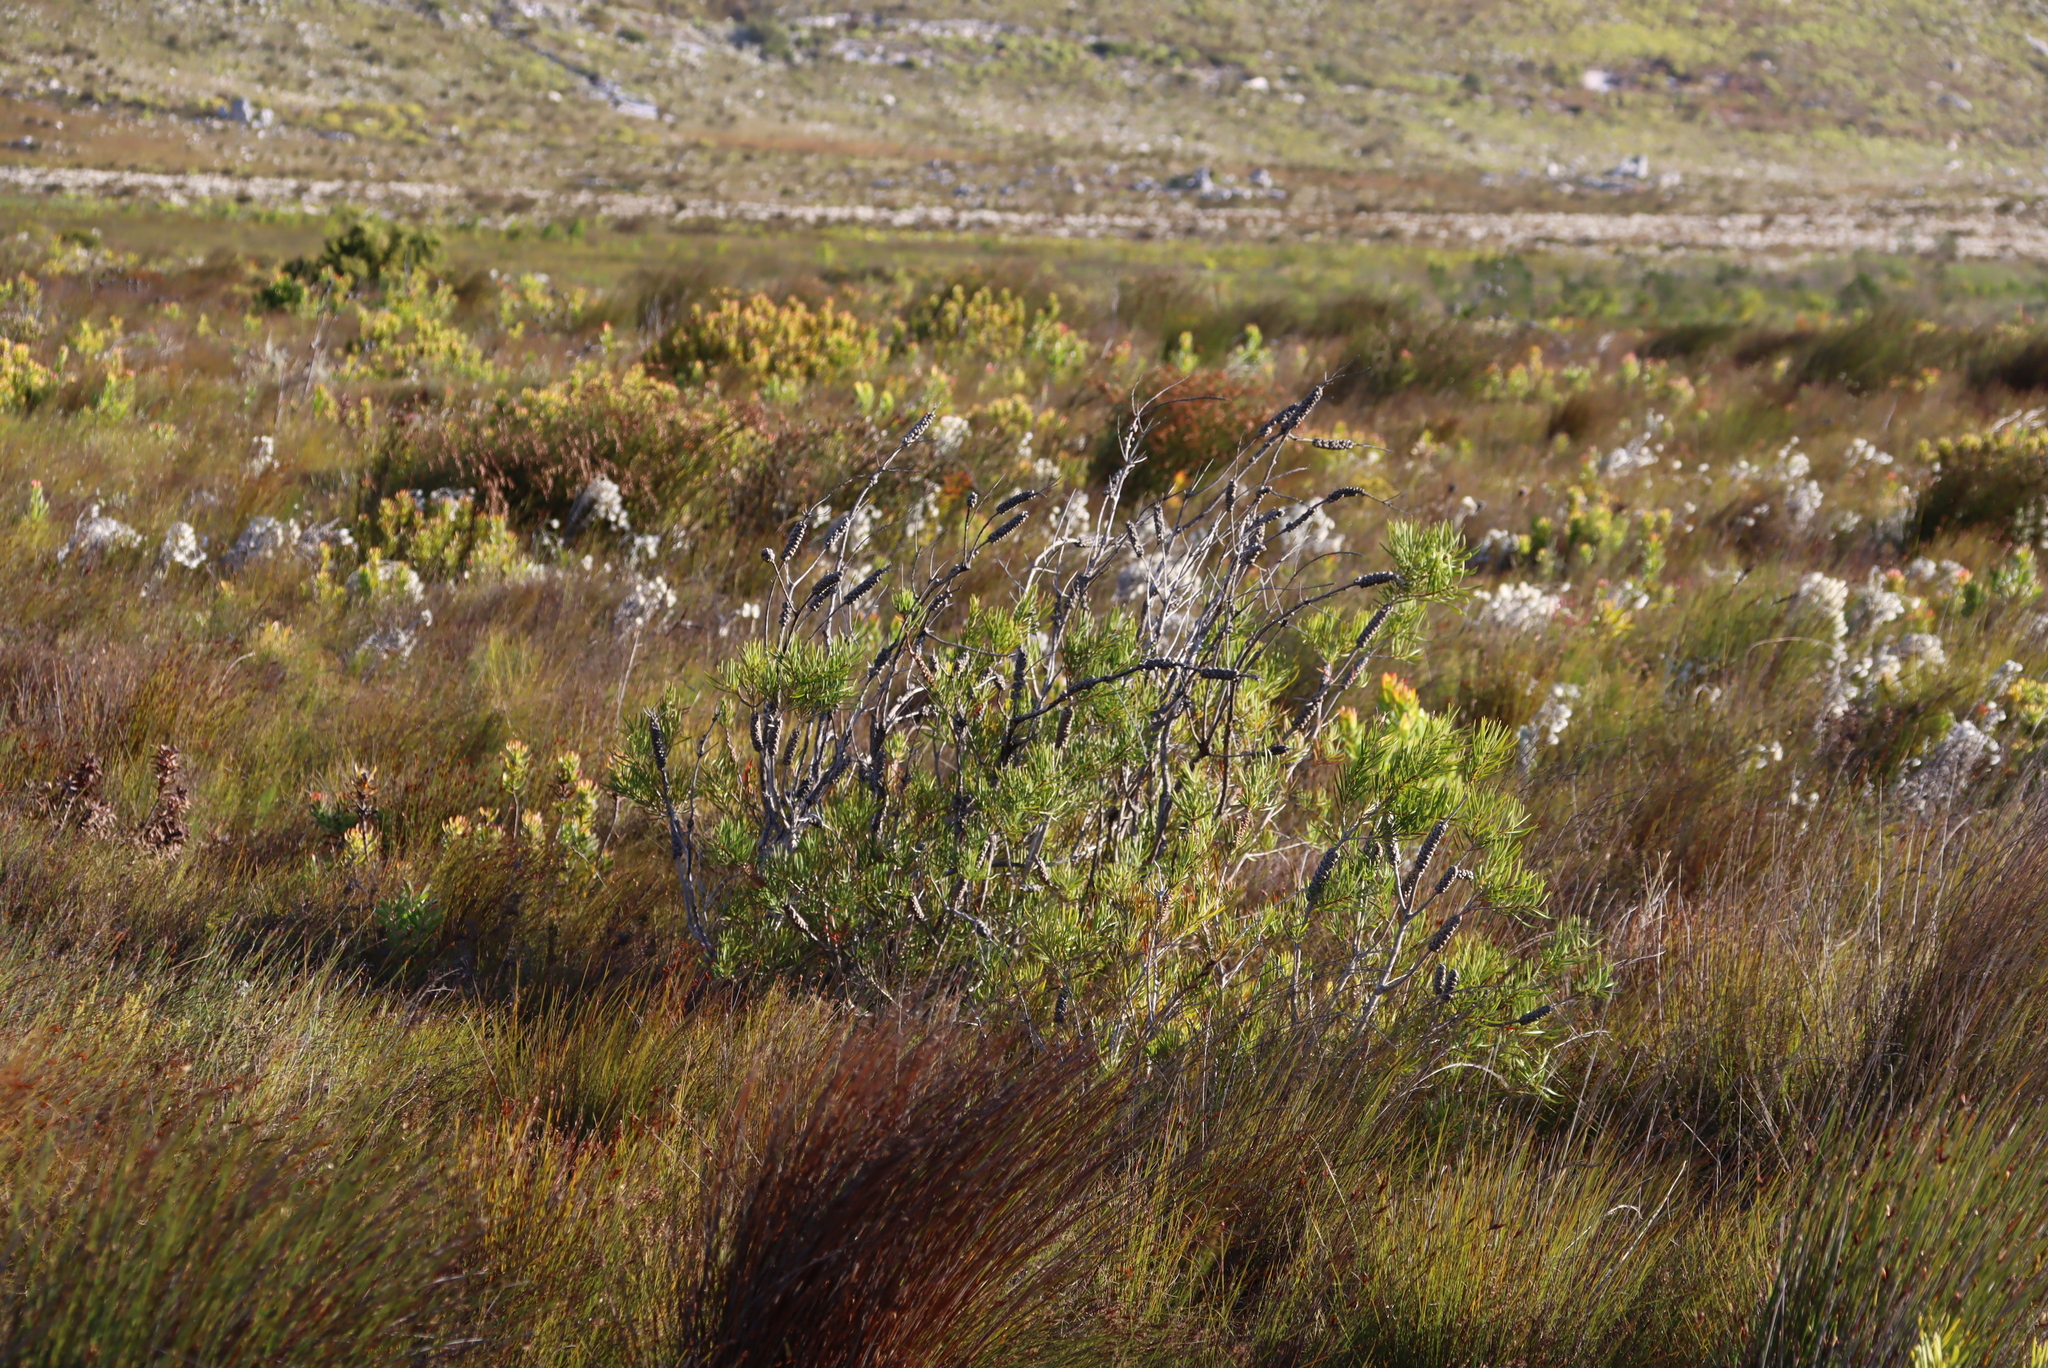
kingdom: Plantae
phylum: Tracheophyta
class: Magnoliopsida
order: Myrtales
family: Myrtaceae
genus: Callistemon
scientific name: Callistemon linearis
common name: Narrow-leaf bottlebrush
